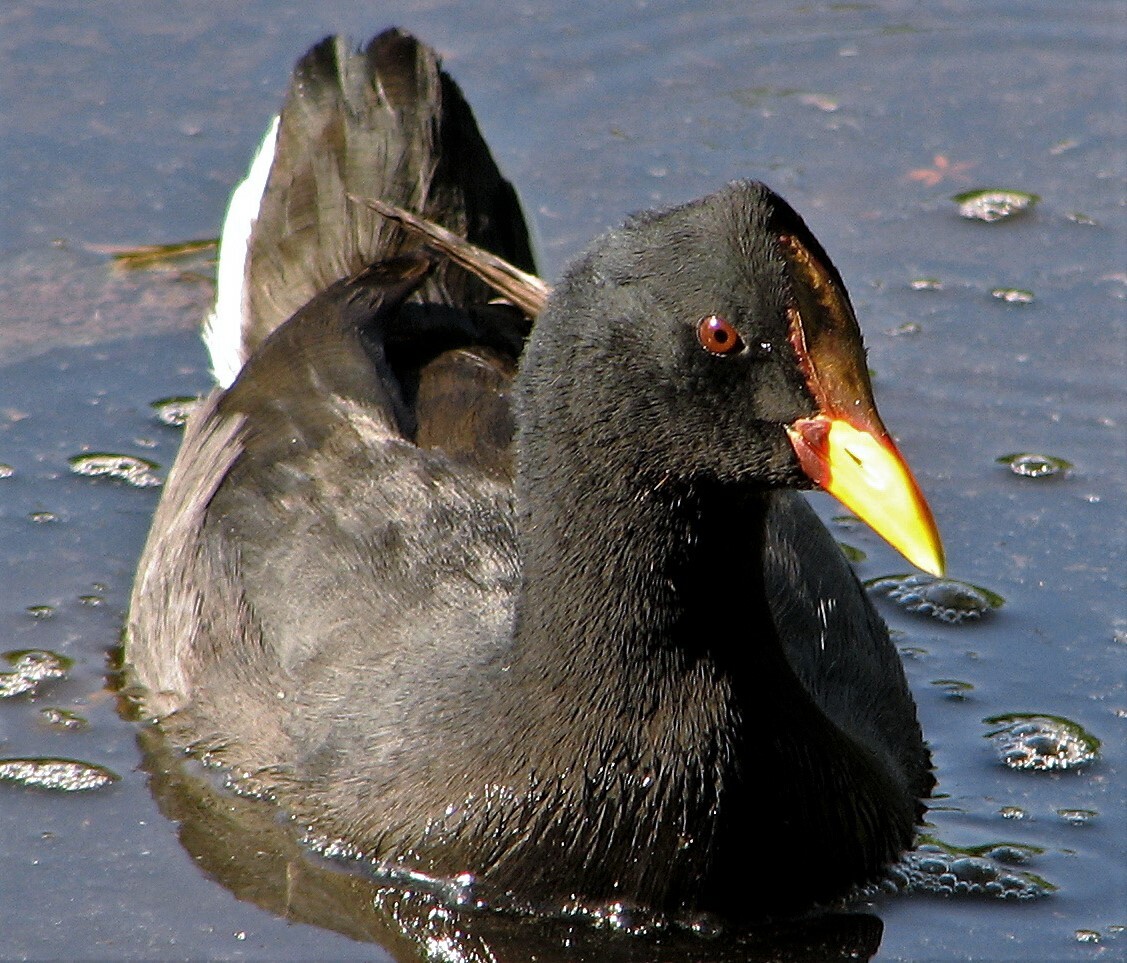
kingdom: Animalia
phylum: Chordata
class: Aves
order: Gruiformes
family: Rallidae
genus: Fulica
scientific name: Fulica rufifrons
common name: Red-fronted coot
